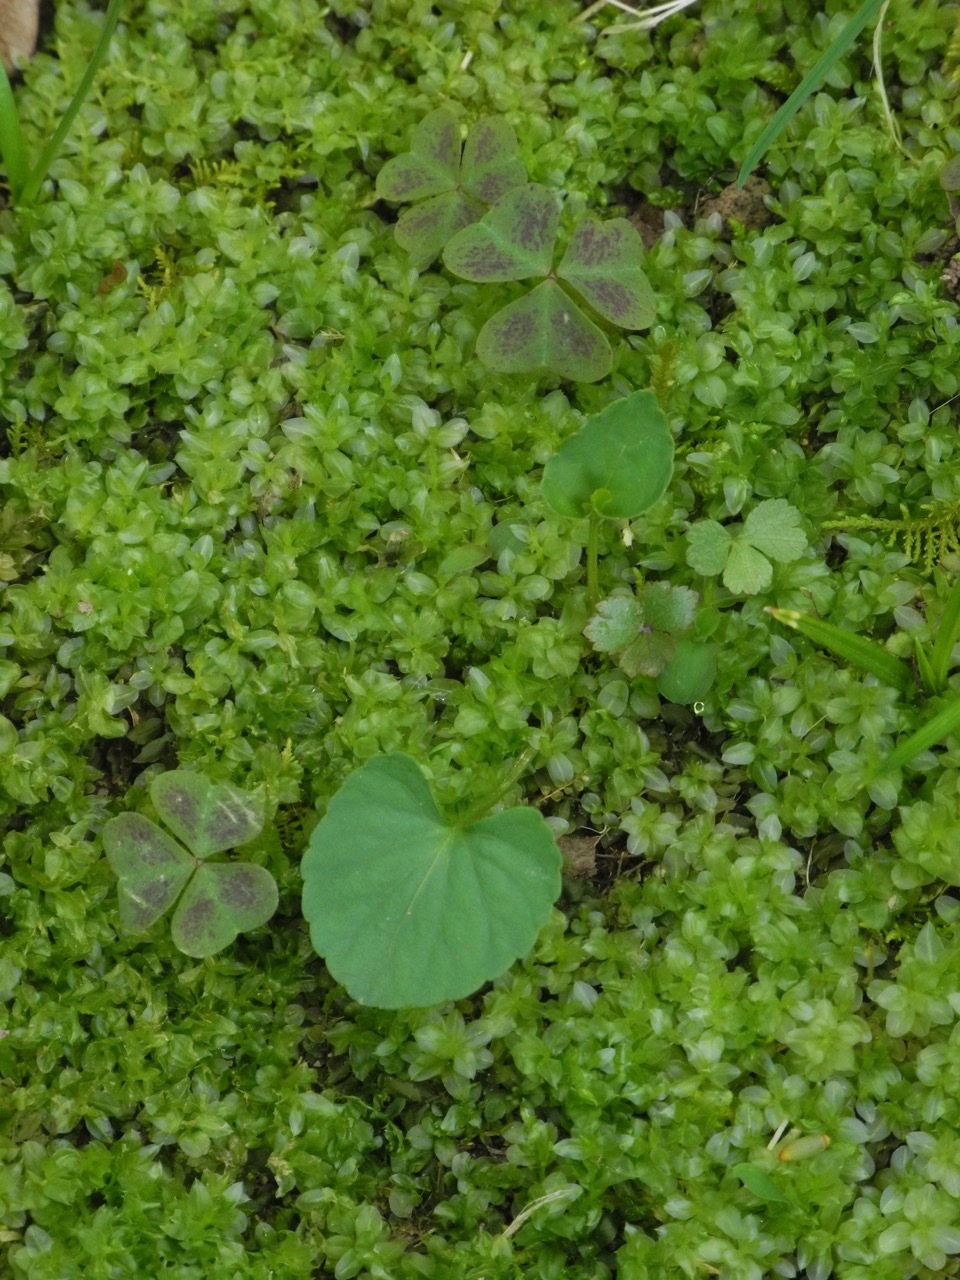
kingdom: Plantae
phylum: Bryophyta
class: Bryopsida
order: Bryales
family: Mniaceae
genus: Plagiomnium
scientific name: Plagiomnium cuspidatum
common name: Woodsy leafy moss
